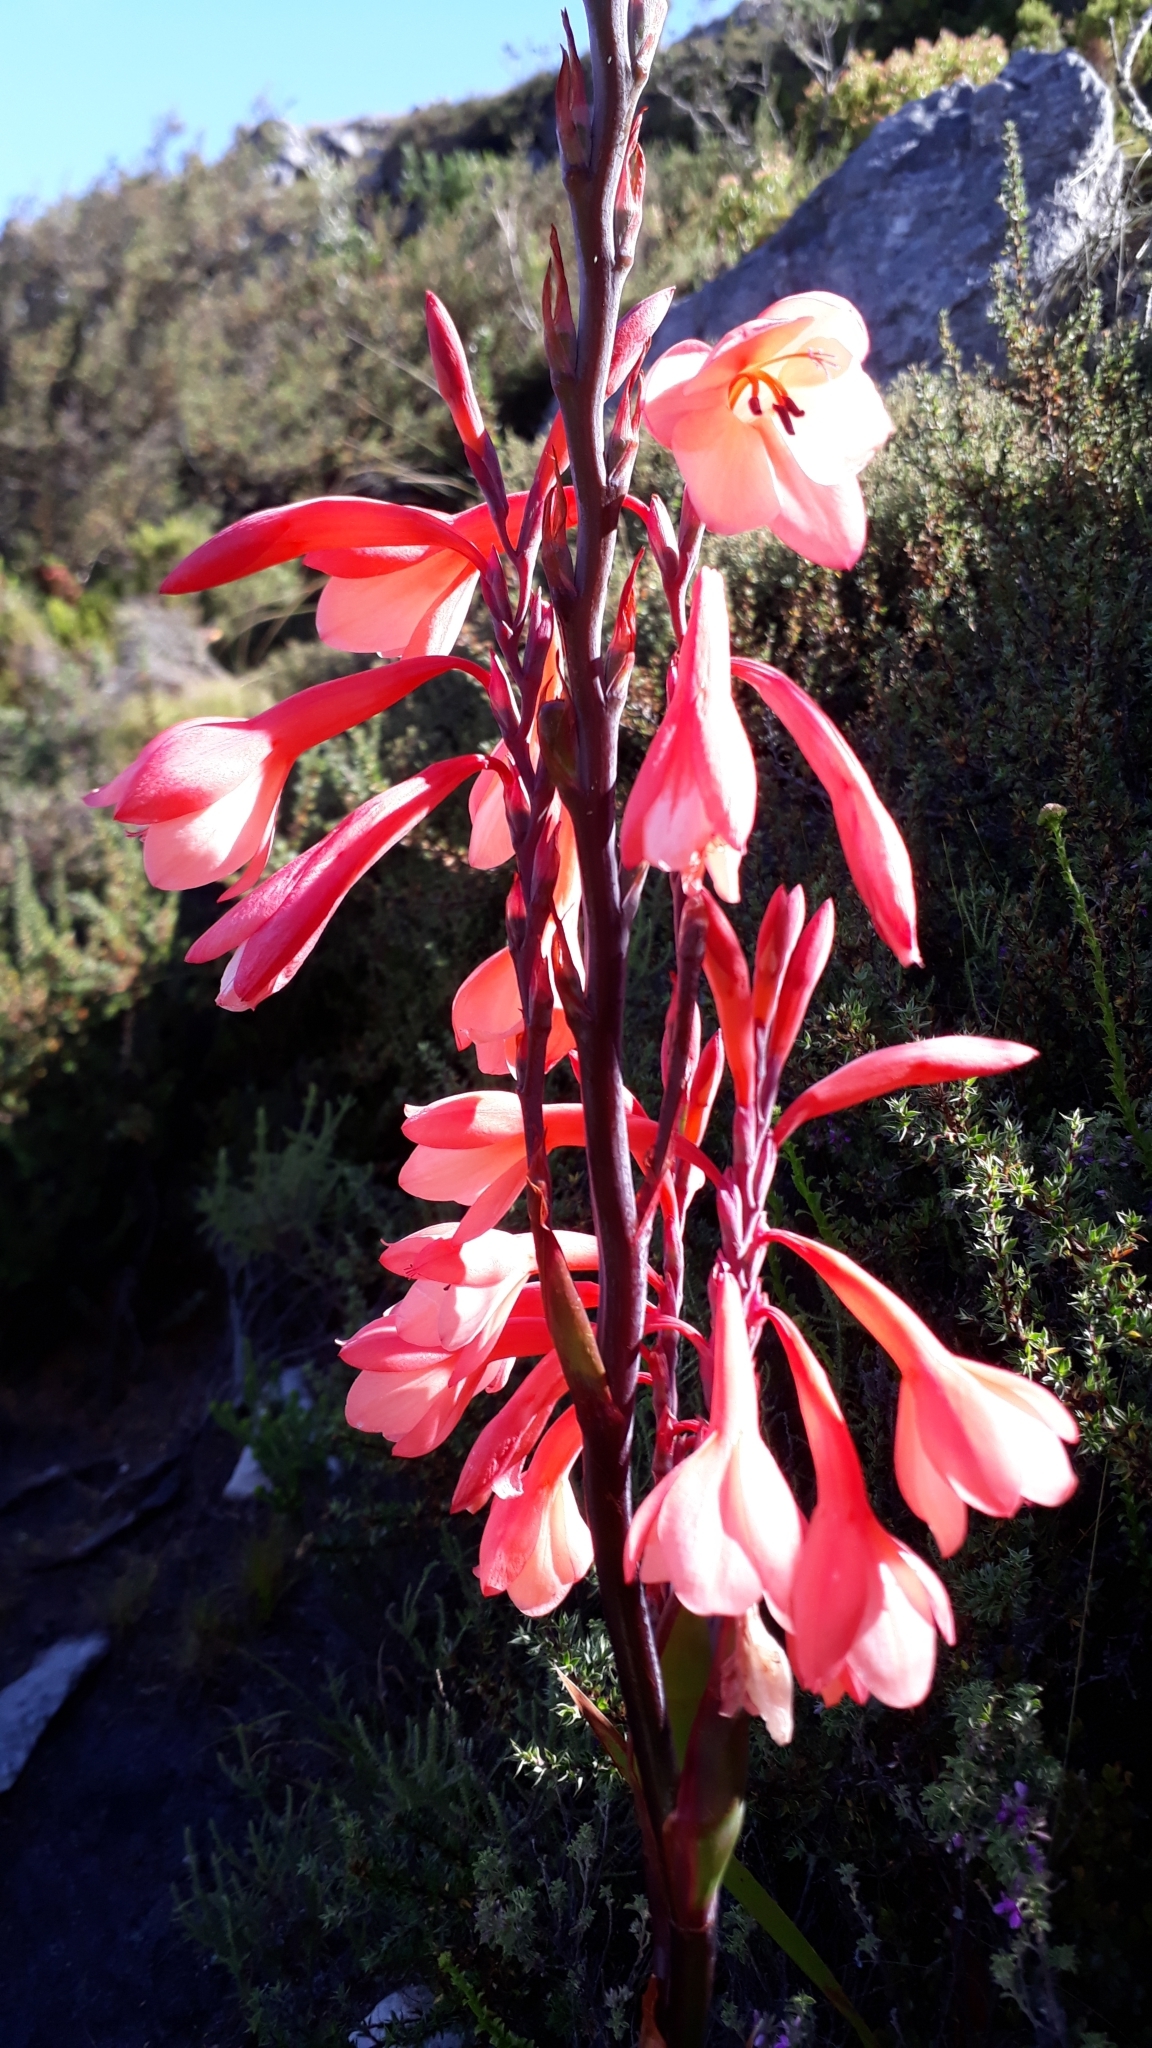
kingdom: Plantae
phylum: Tracheophyta
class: Liliopsida
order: Asparagales
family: Iridaceae
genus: Watsonia
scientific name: Watsonia tabularis
